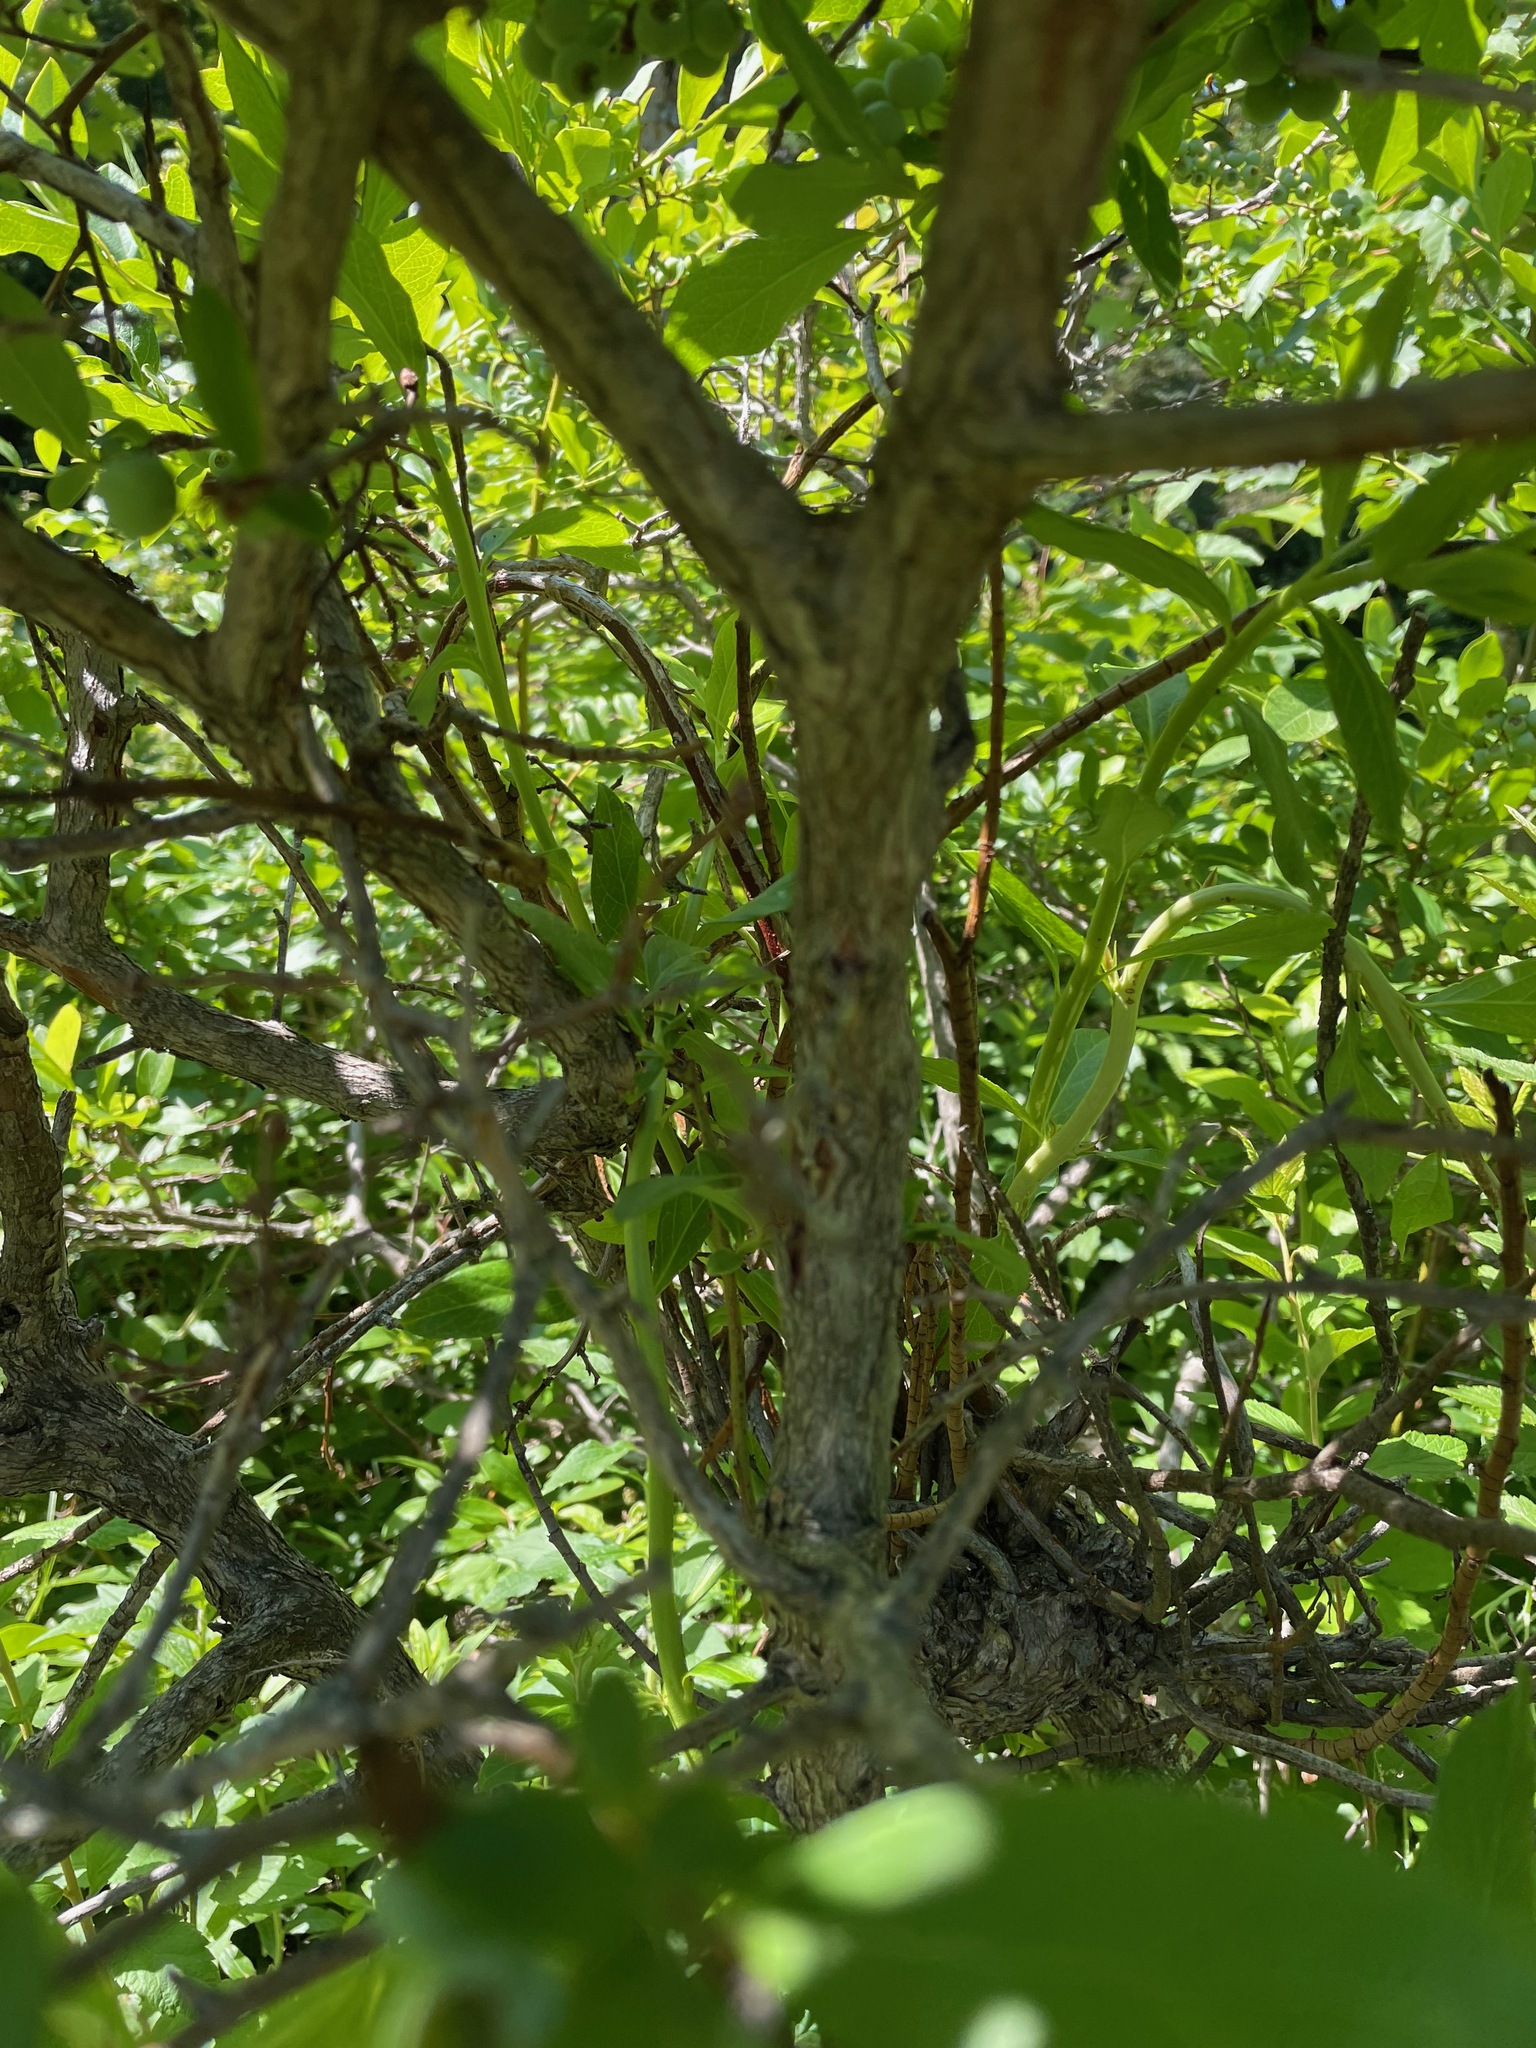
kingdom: Plantae
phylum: Tracheophyta
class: Magnoliopsida
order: Ericales
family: Ericaceae
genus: Vaccinium
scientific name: Vaccinium corymbosum
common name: Blueberry
